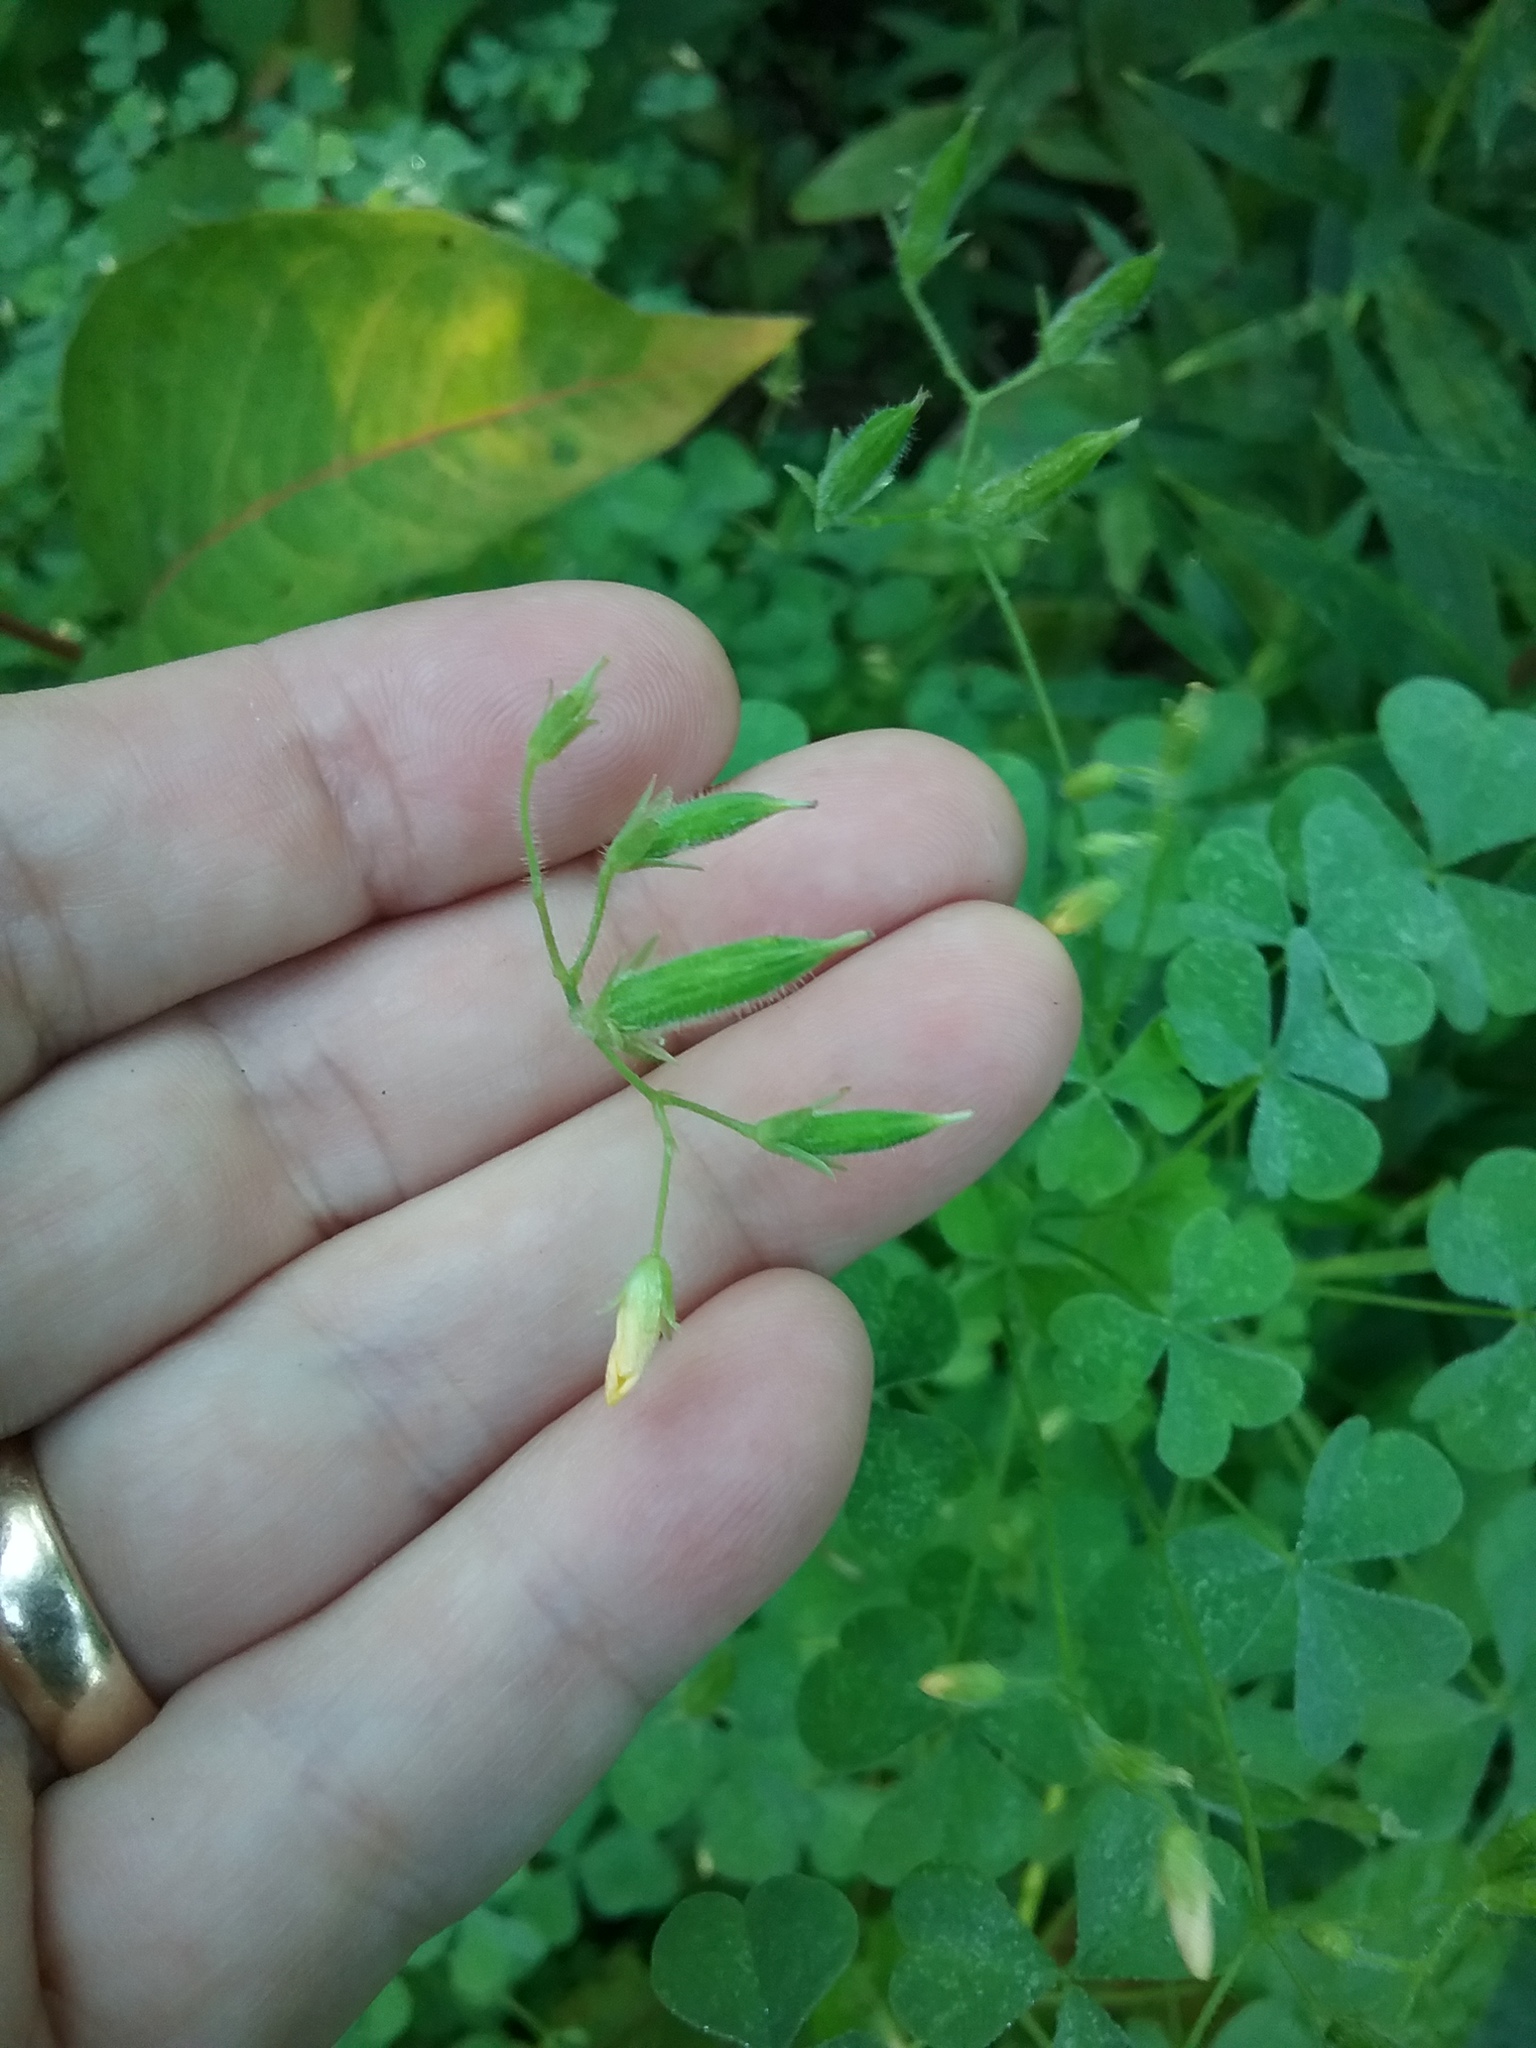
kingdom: Plantae
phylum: Tracheophyta
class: Magnoliopsida
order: Oxalidales
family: Oxalidaceae
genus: Oxalis
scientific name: Oxalis stricta
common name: Upright yellow-sorrel
